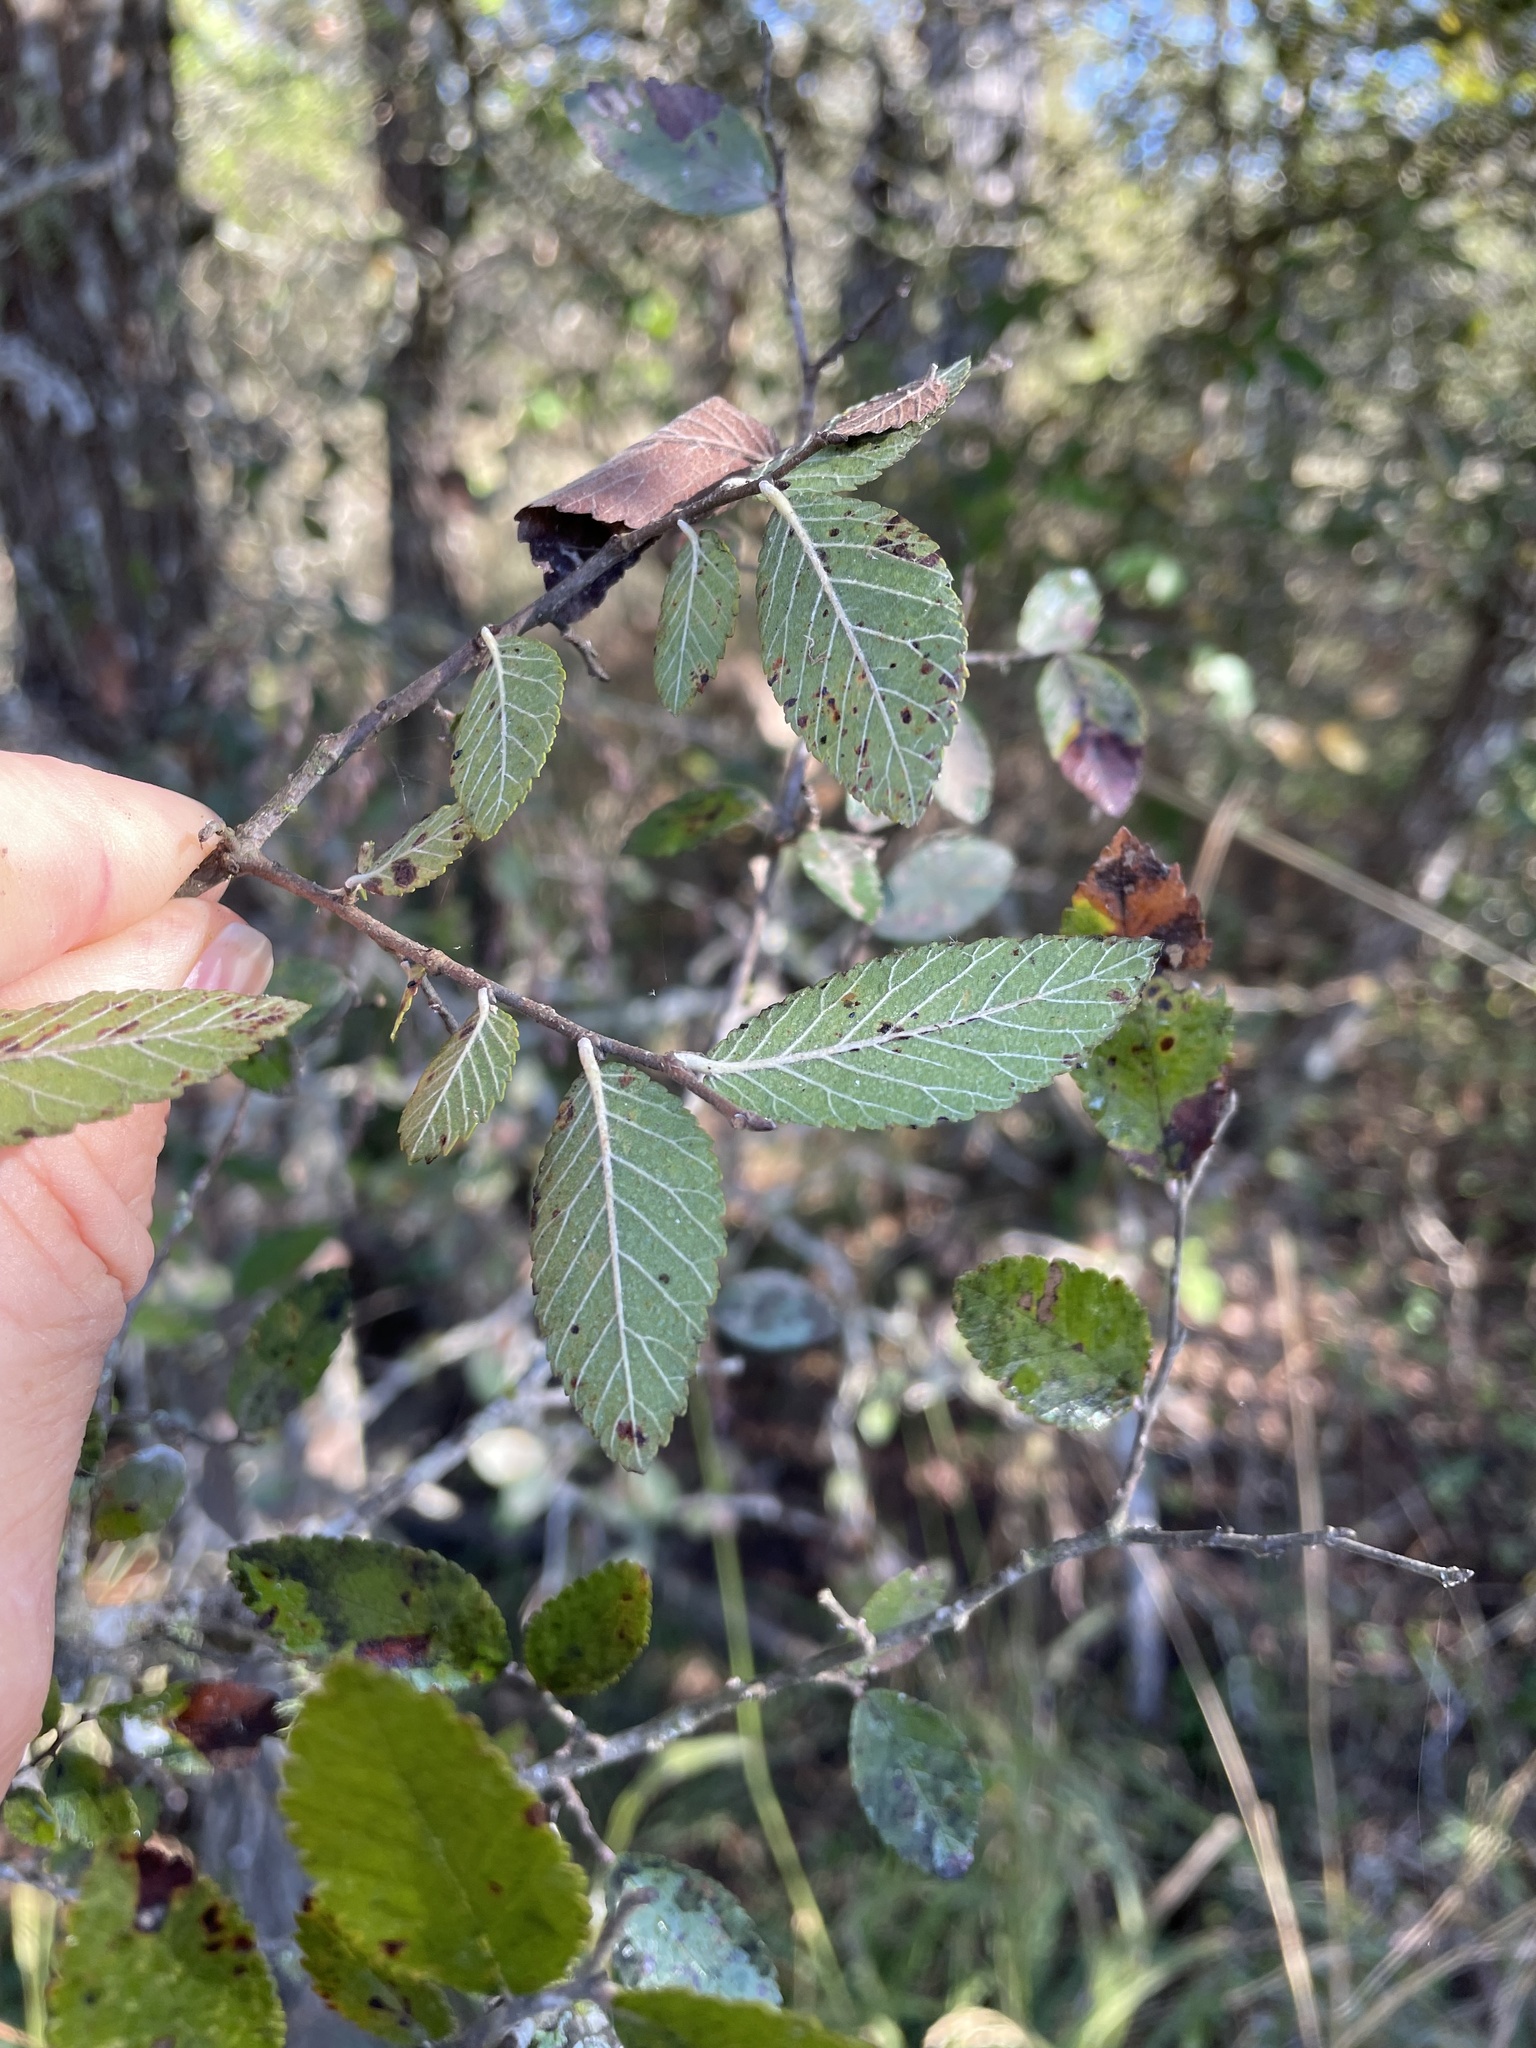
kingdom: Plantae
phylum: Tracheophyta
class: Magnoliopsida
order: Rosales
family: Ulmaceae
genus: Ulmus
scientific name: Ulmus crassifolia
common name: Basket elm
